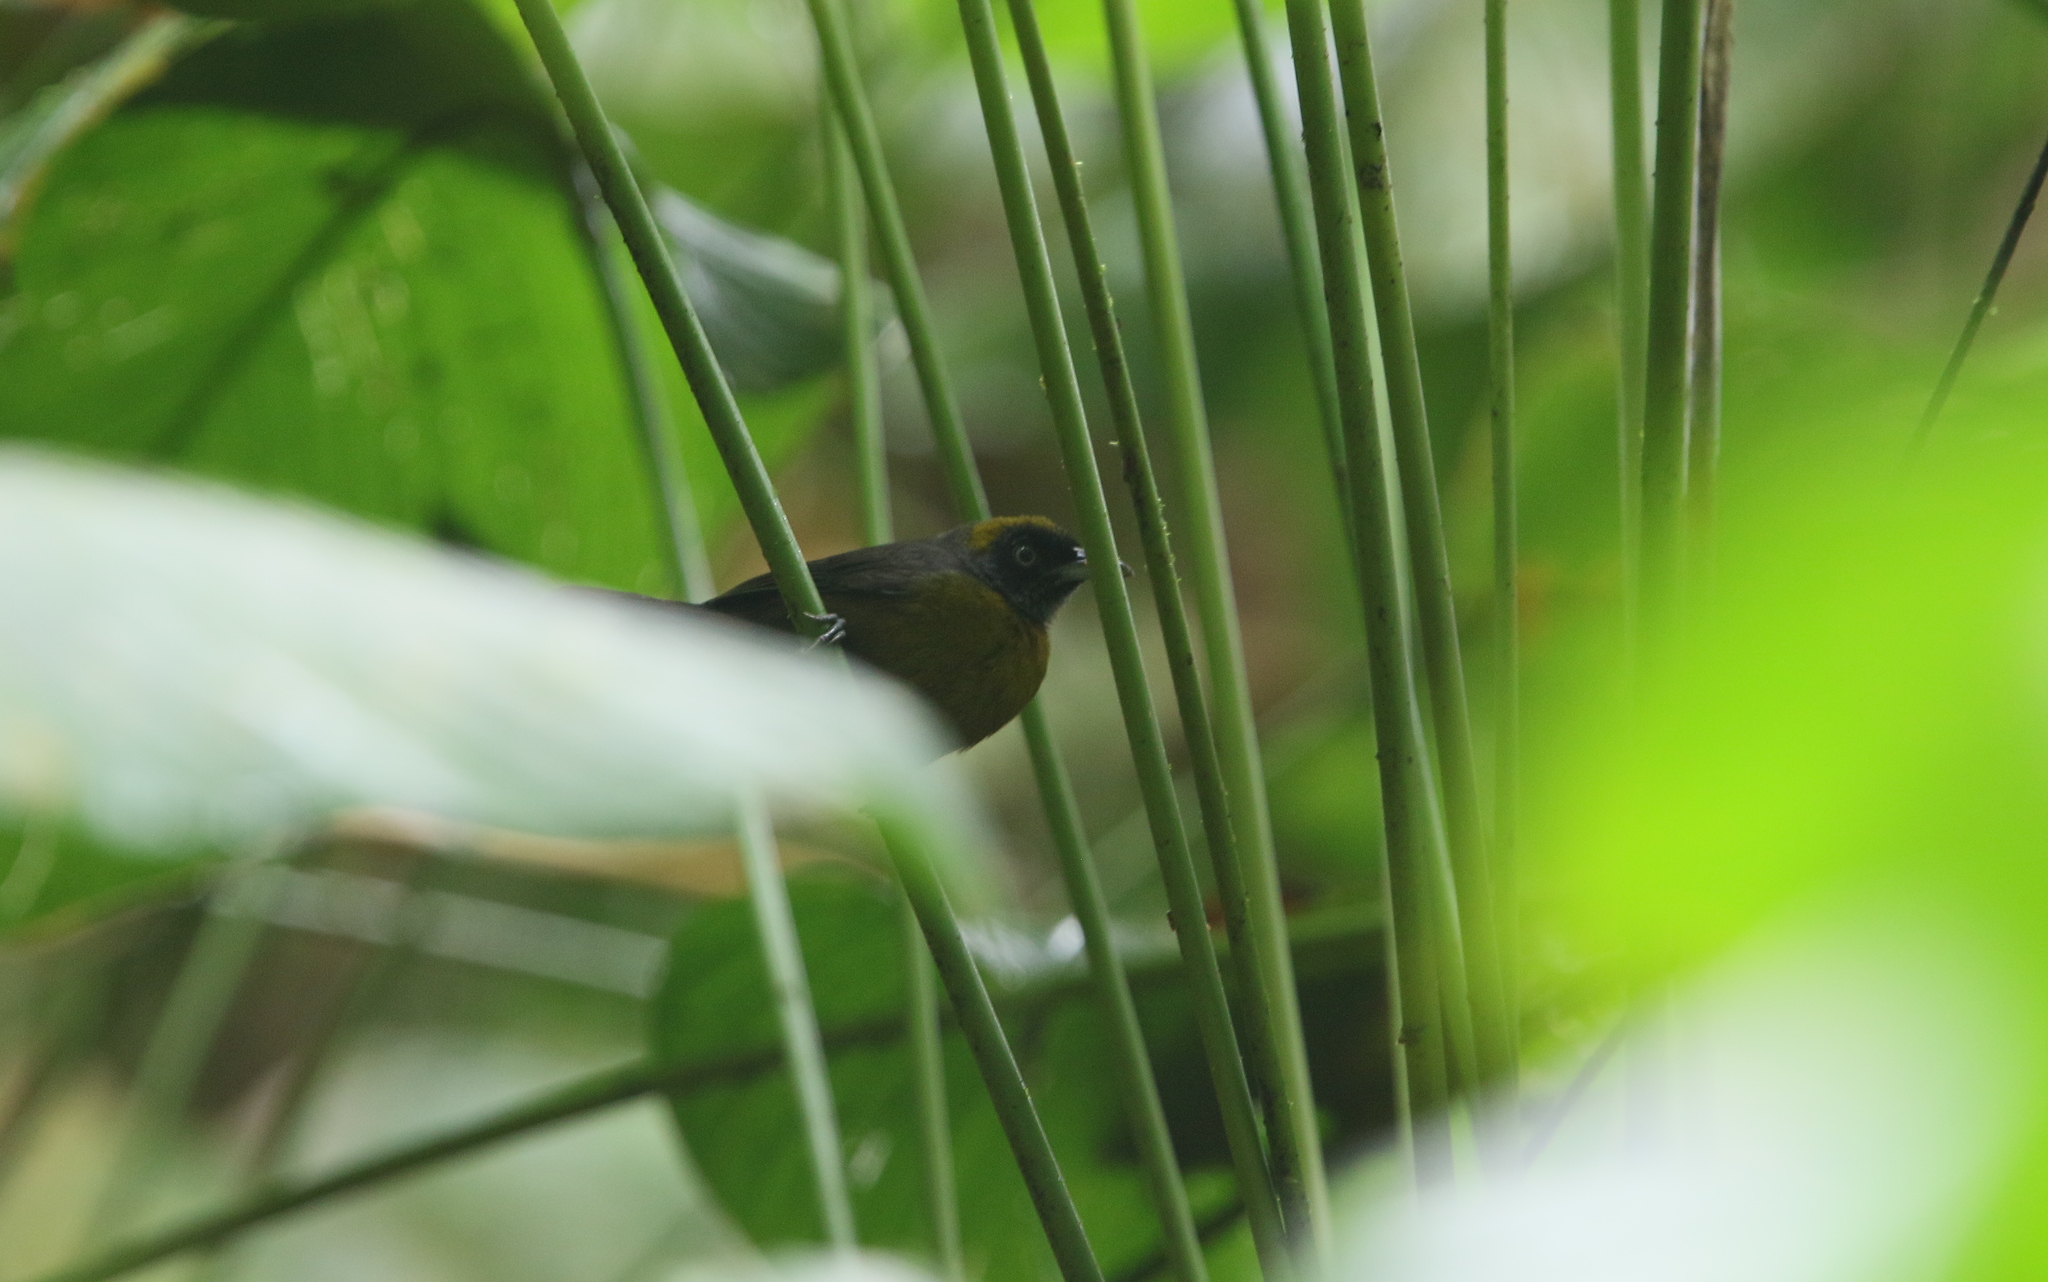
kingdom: Animalia
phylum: Chordata
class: Aves
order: Passeriformes
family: Mitrospingidae
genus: Mitrospingus
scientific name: Mitrospingus cassinii
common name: Dusky-faced tanager
